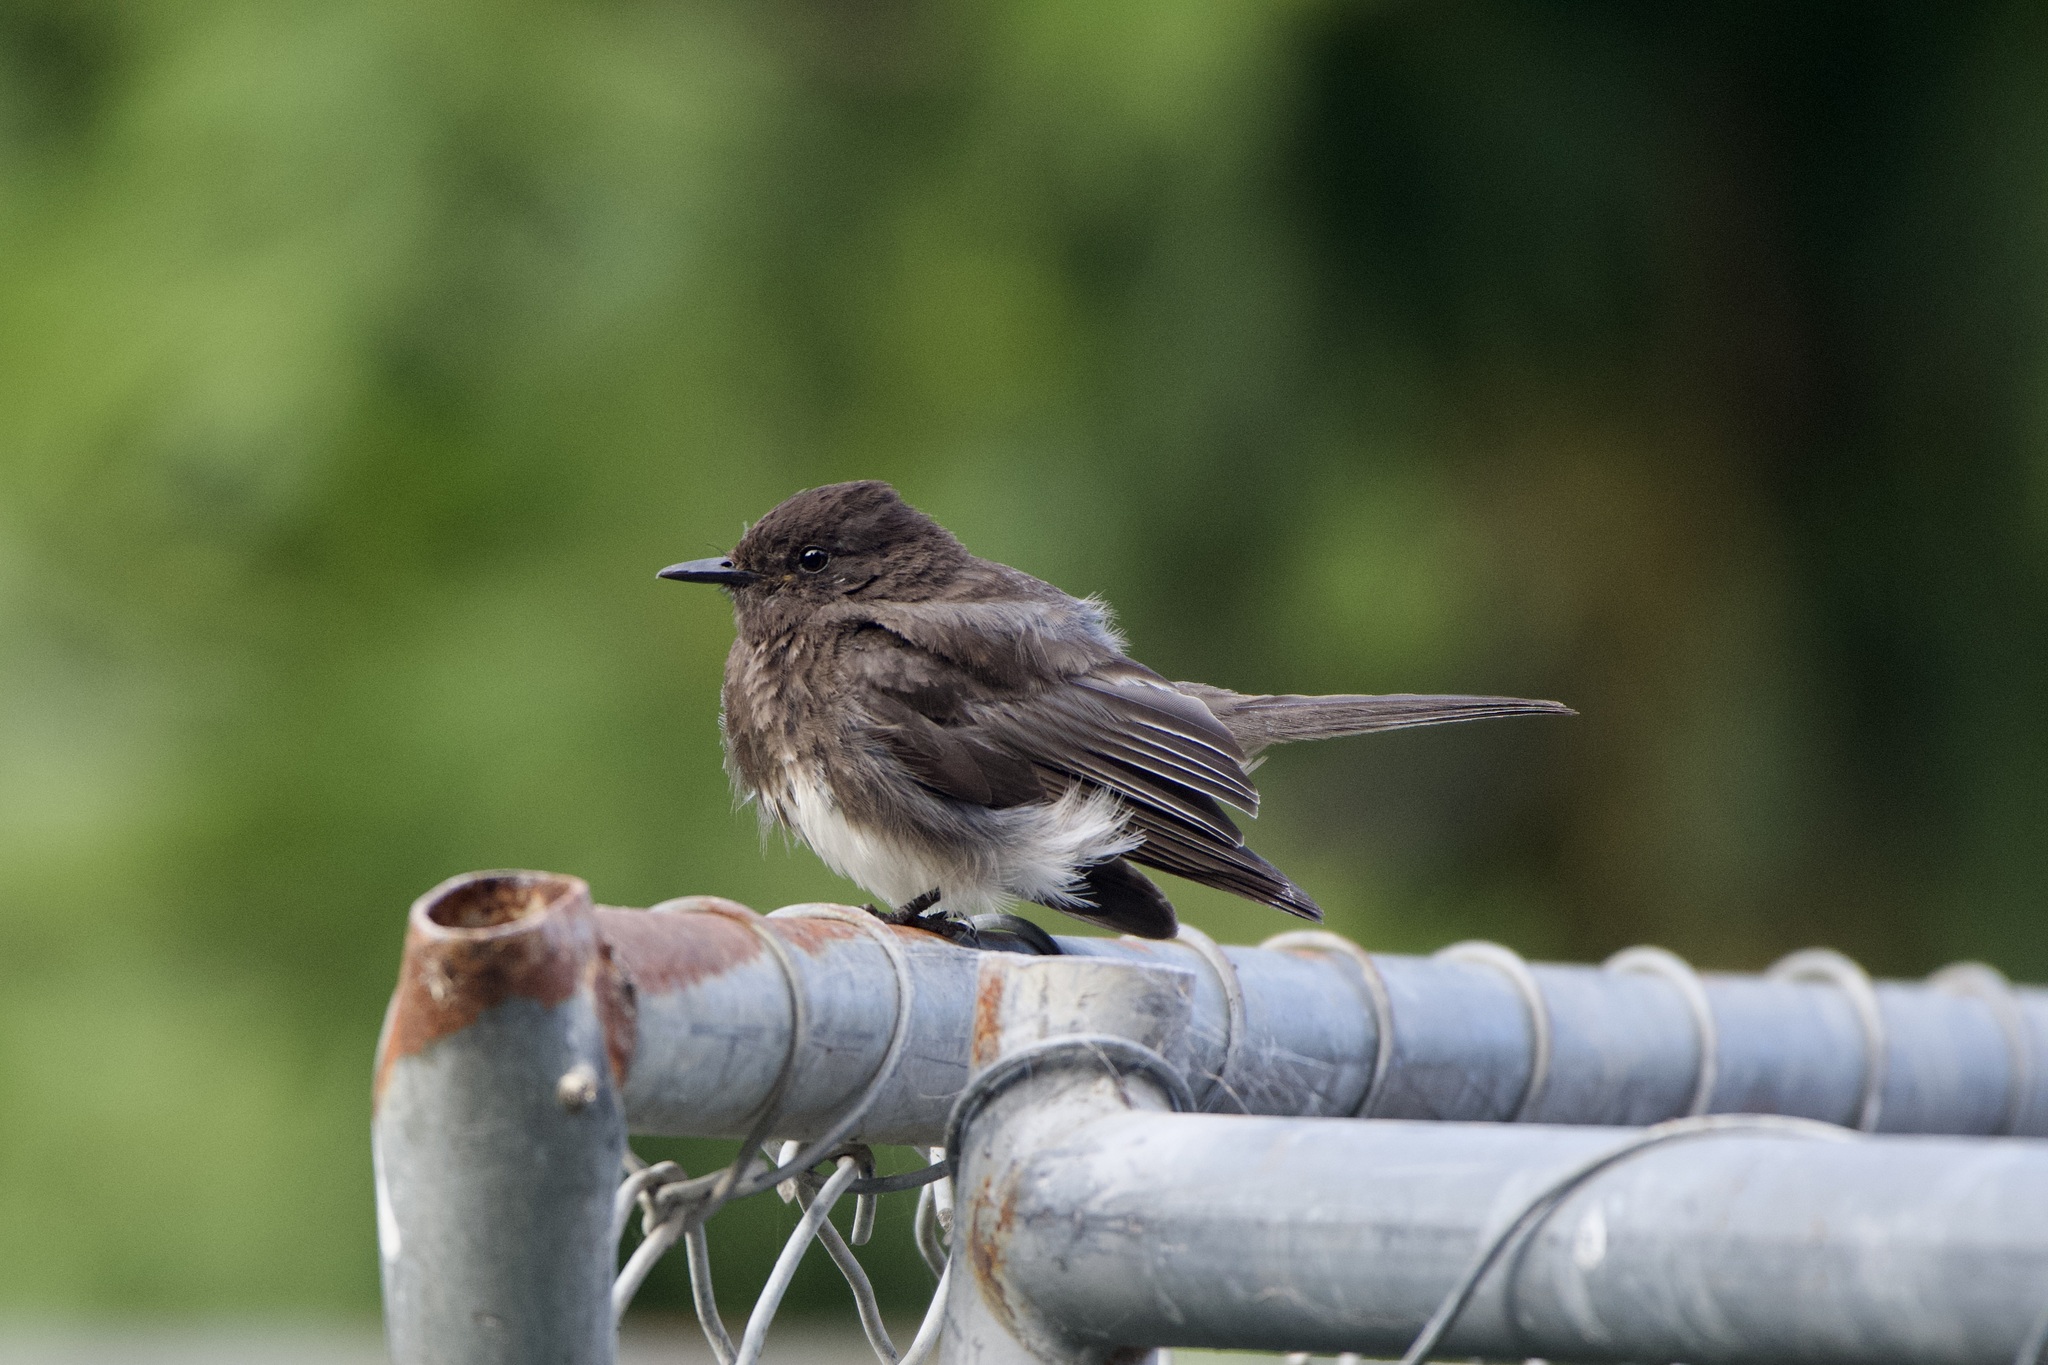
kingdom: Animalia
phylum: Chordata
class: Aves
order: Passeriformes
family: Tyrannidae
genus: Sayornis
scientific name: Sayornis nigricans
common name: Black phoebe
